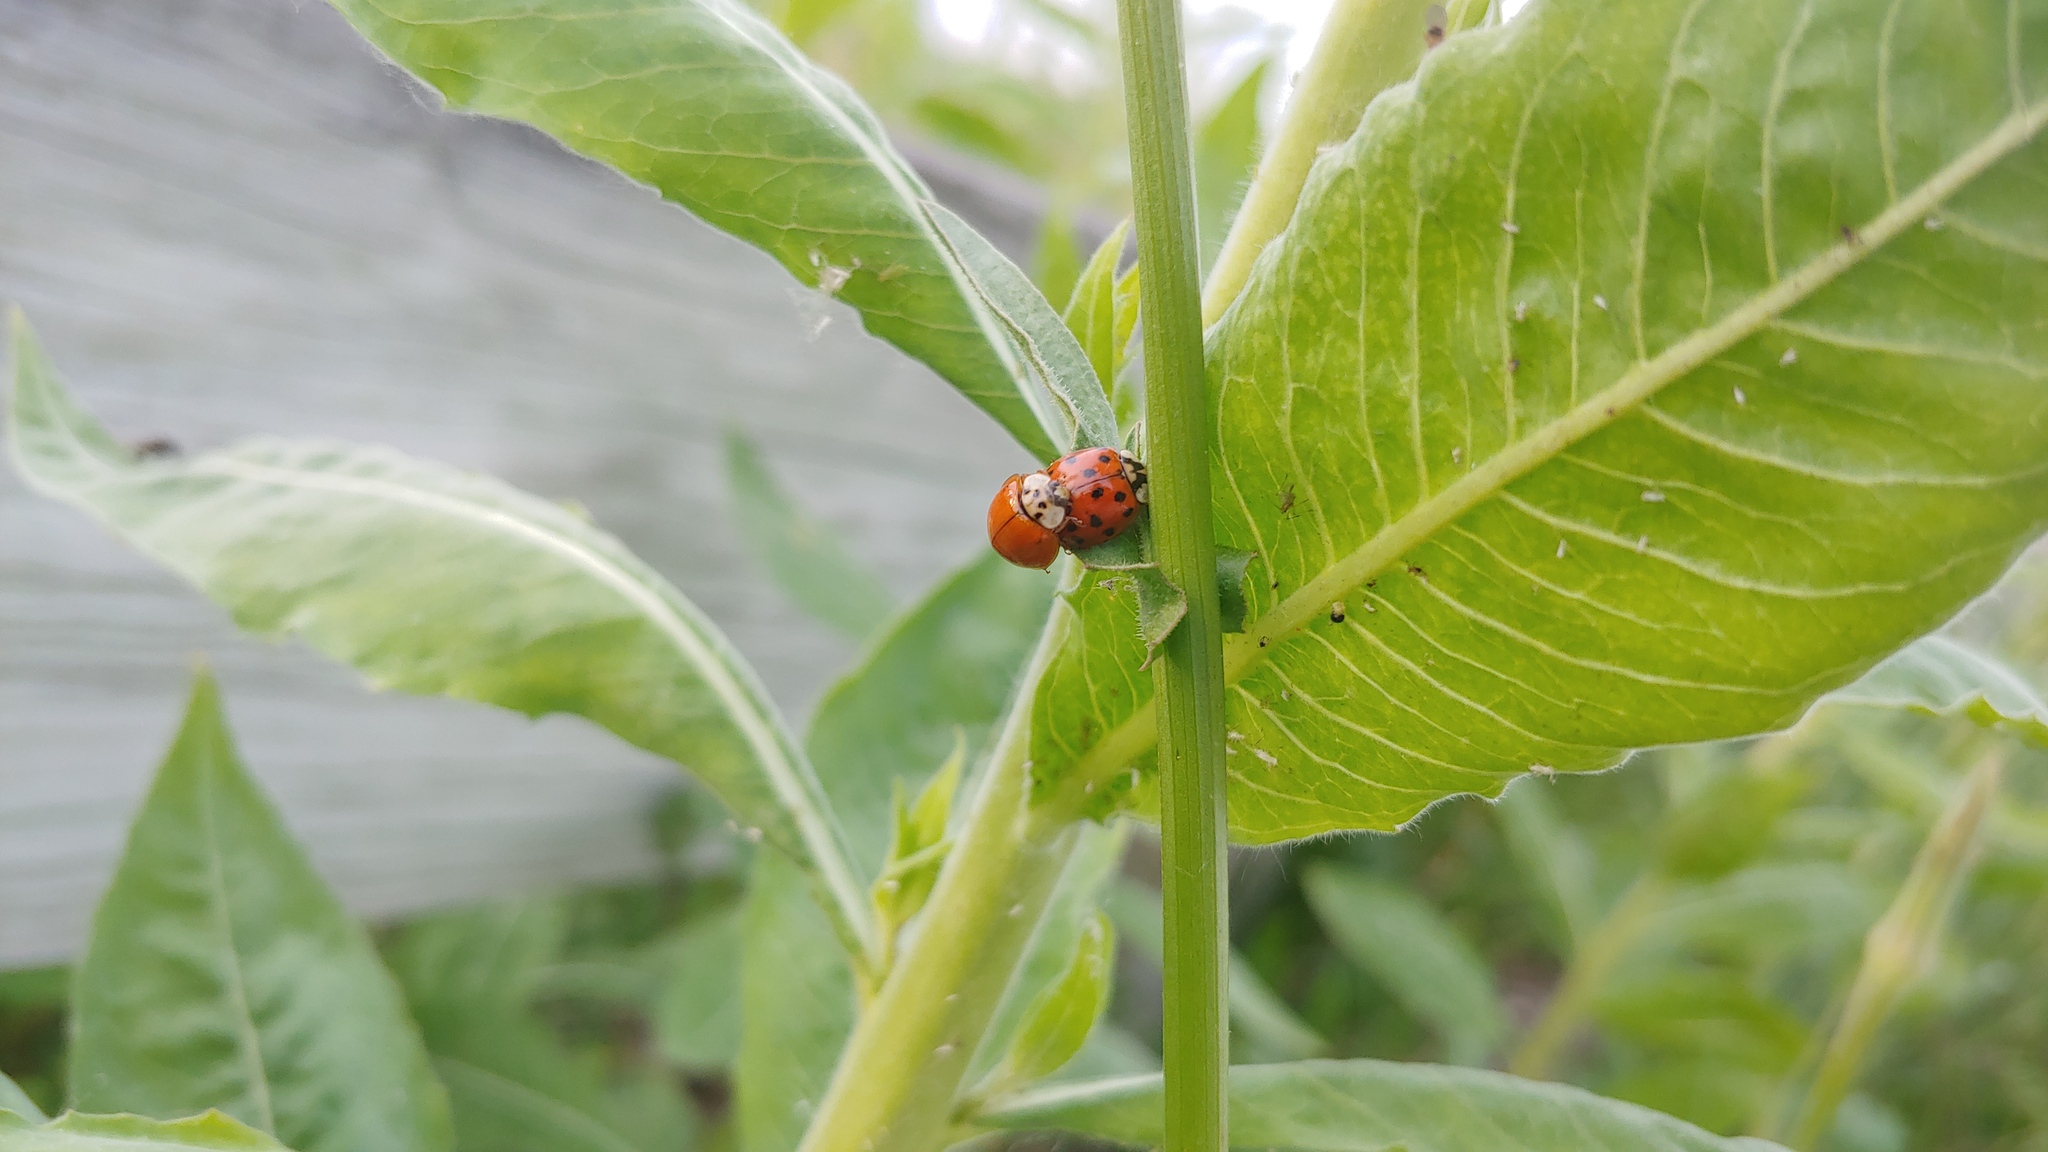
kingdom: Animalia
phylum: Arthropoda
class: Insecta
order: Coleoptera
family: Coccinellidae
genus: Harmonia
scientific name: Harmonia axyridis
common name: Harlequin ladybird
